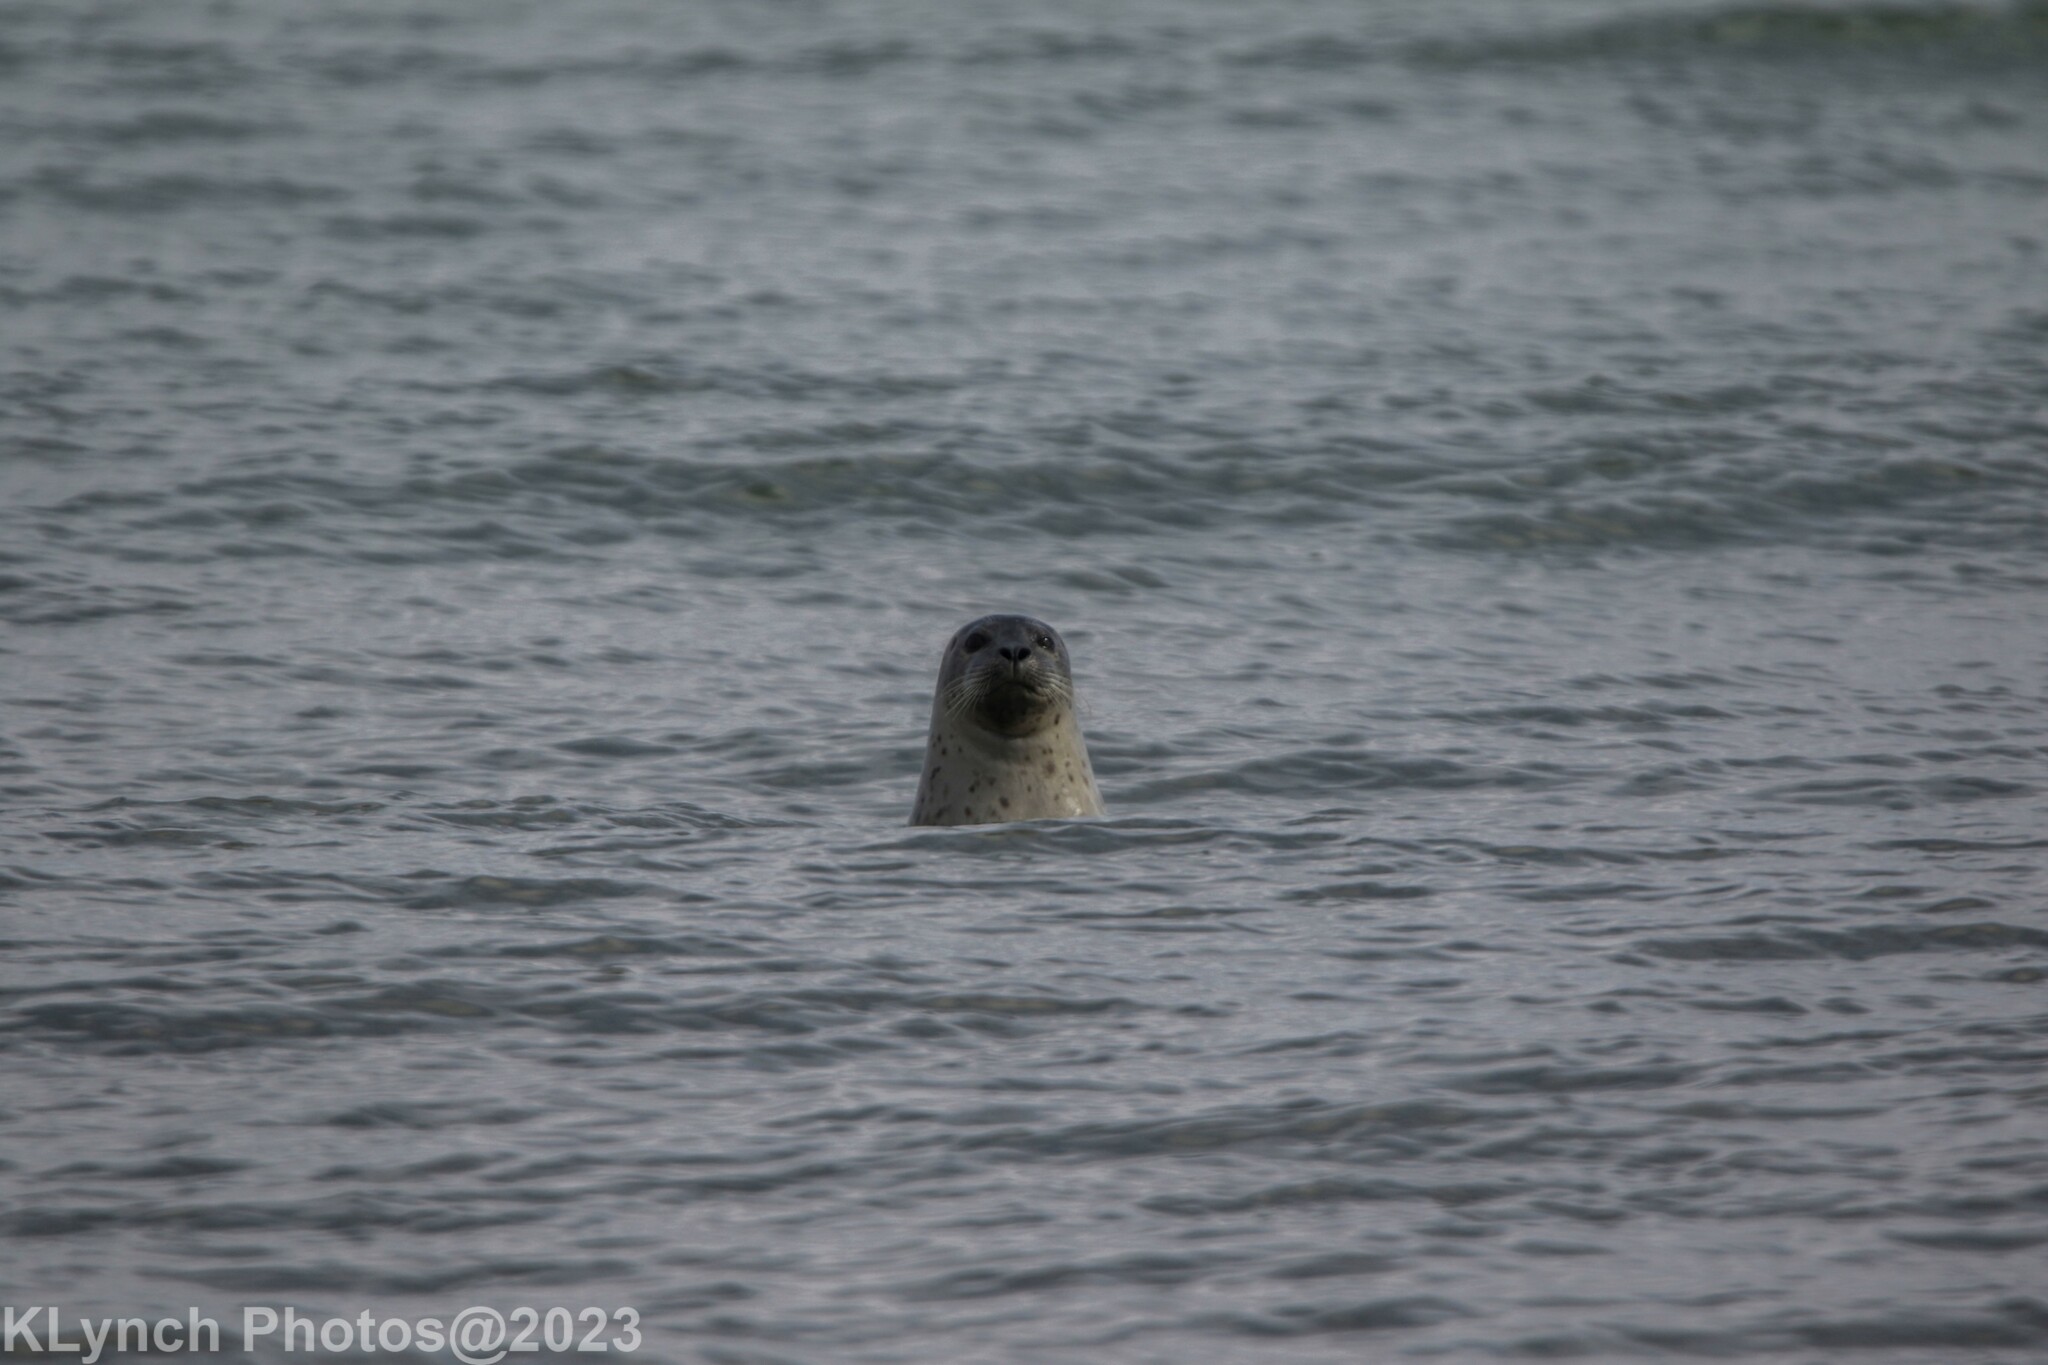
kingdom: Animalia
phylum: Chordata
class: Mammalia
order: Carnivora
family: Phocidae
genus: Phoca
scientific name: Phoca vitulina
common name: Harbor seal
